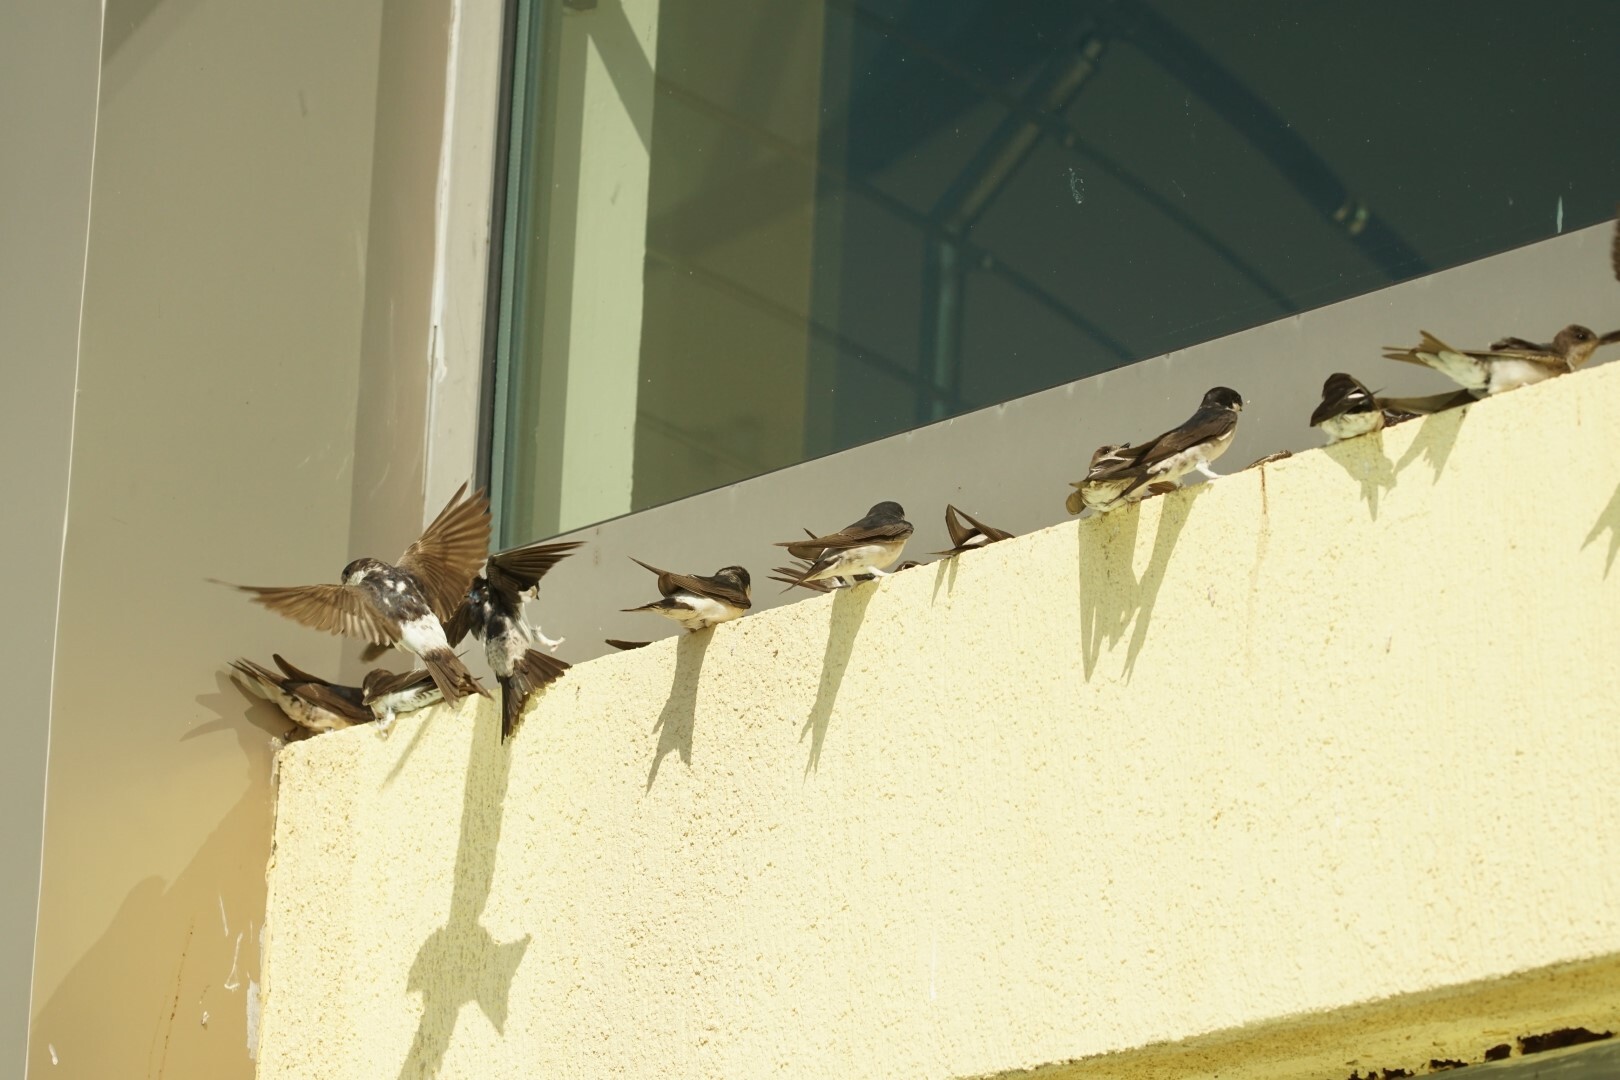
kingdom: Animalia
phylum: Chordata
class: Aves
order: Passeriformes
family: Hirundinidae
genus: Delichon
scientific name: Delichon urbicum
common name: Common house martin
